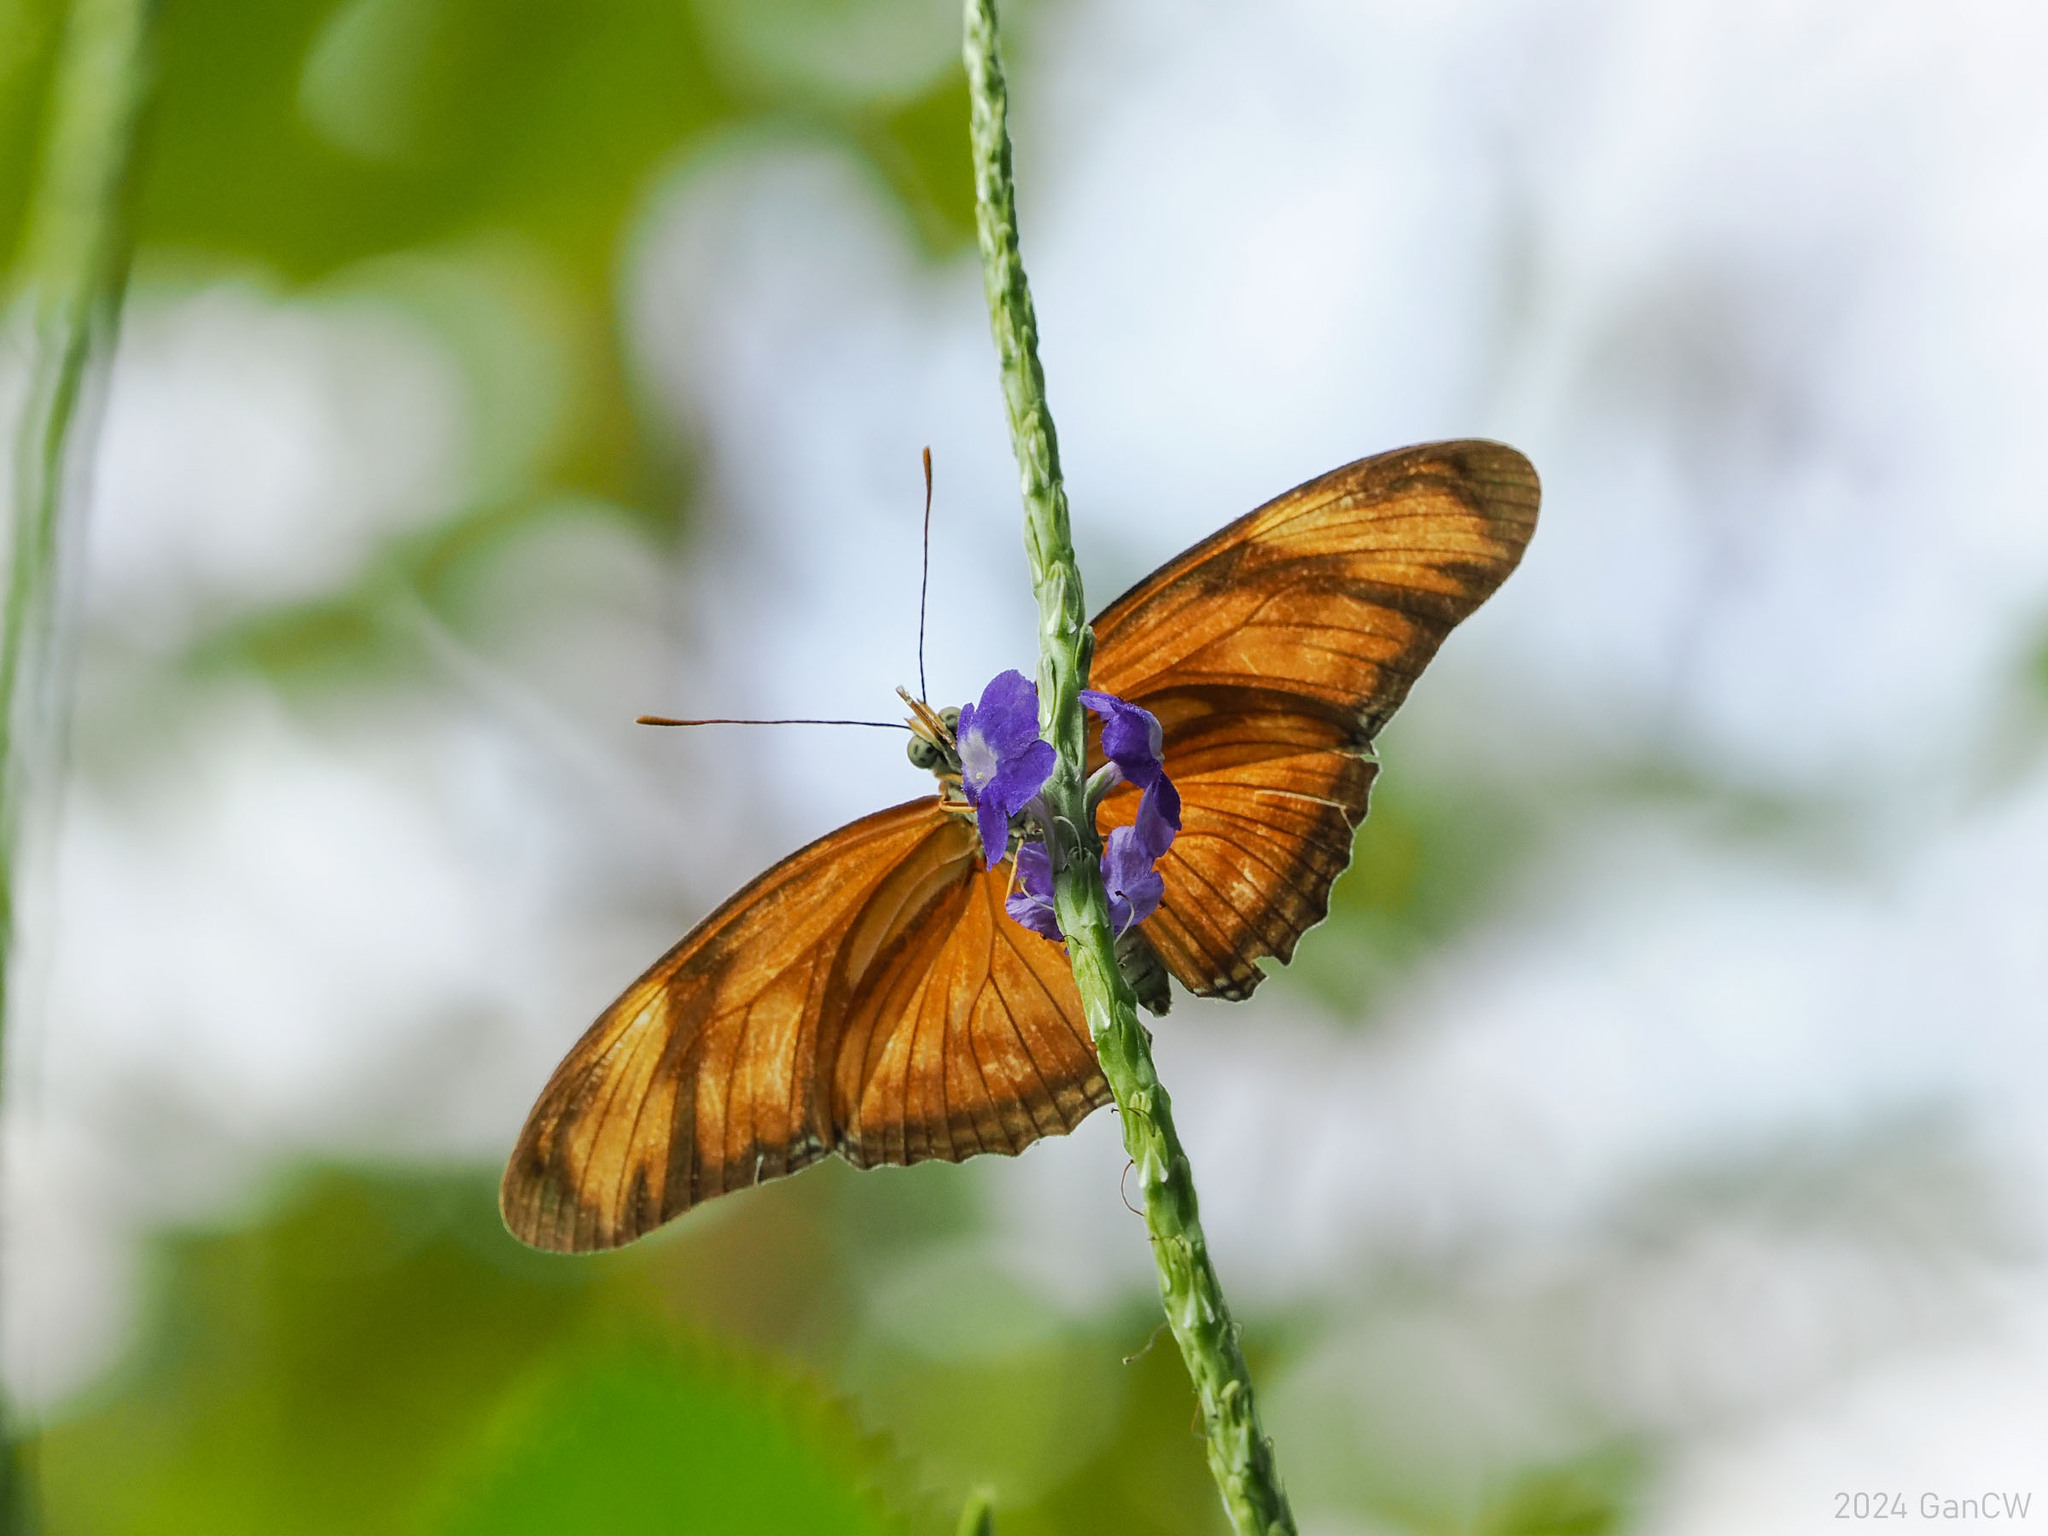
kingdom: Animalia
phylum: Arthropoda
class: Insecta
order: Lepidoptera
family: Nymphalidae
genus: Dryas
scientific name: Dryas iulia
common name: Flambeau
